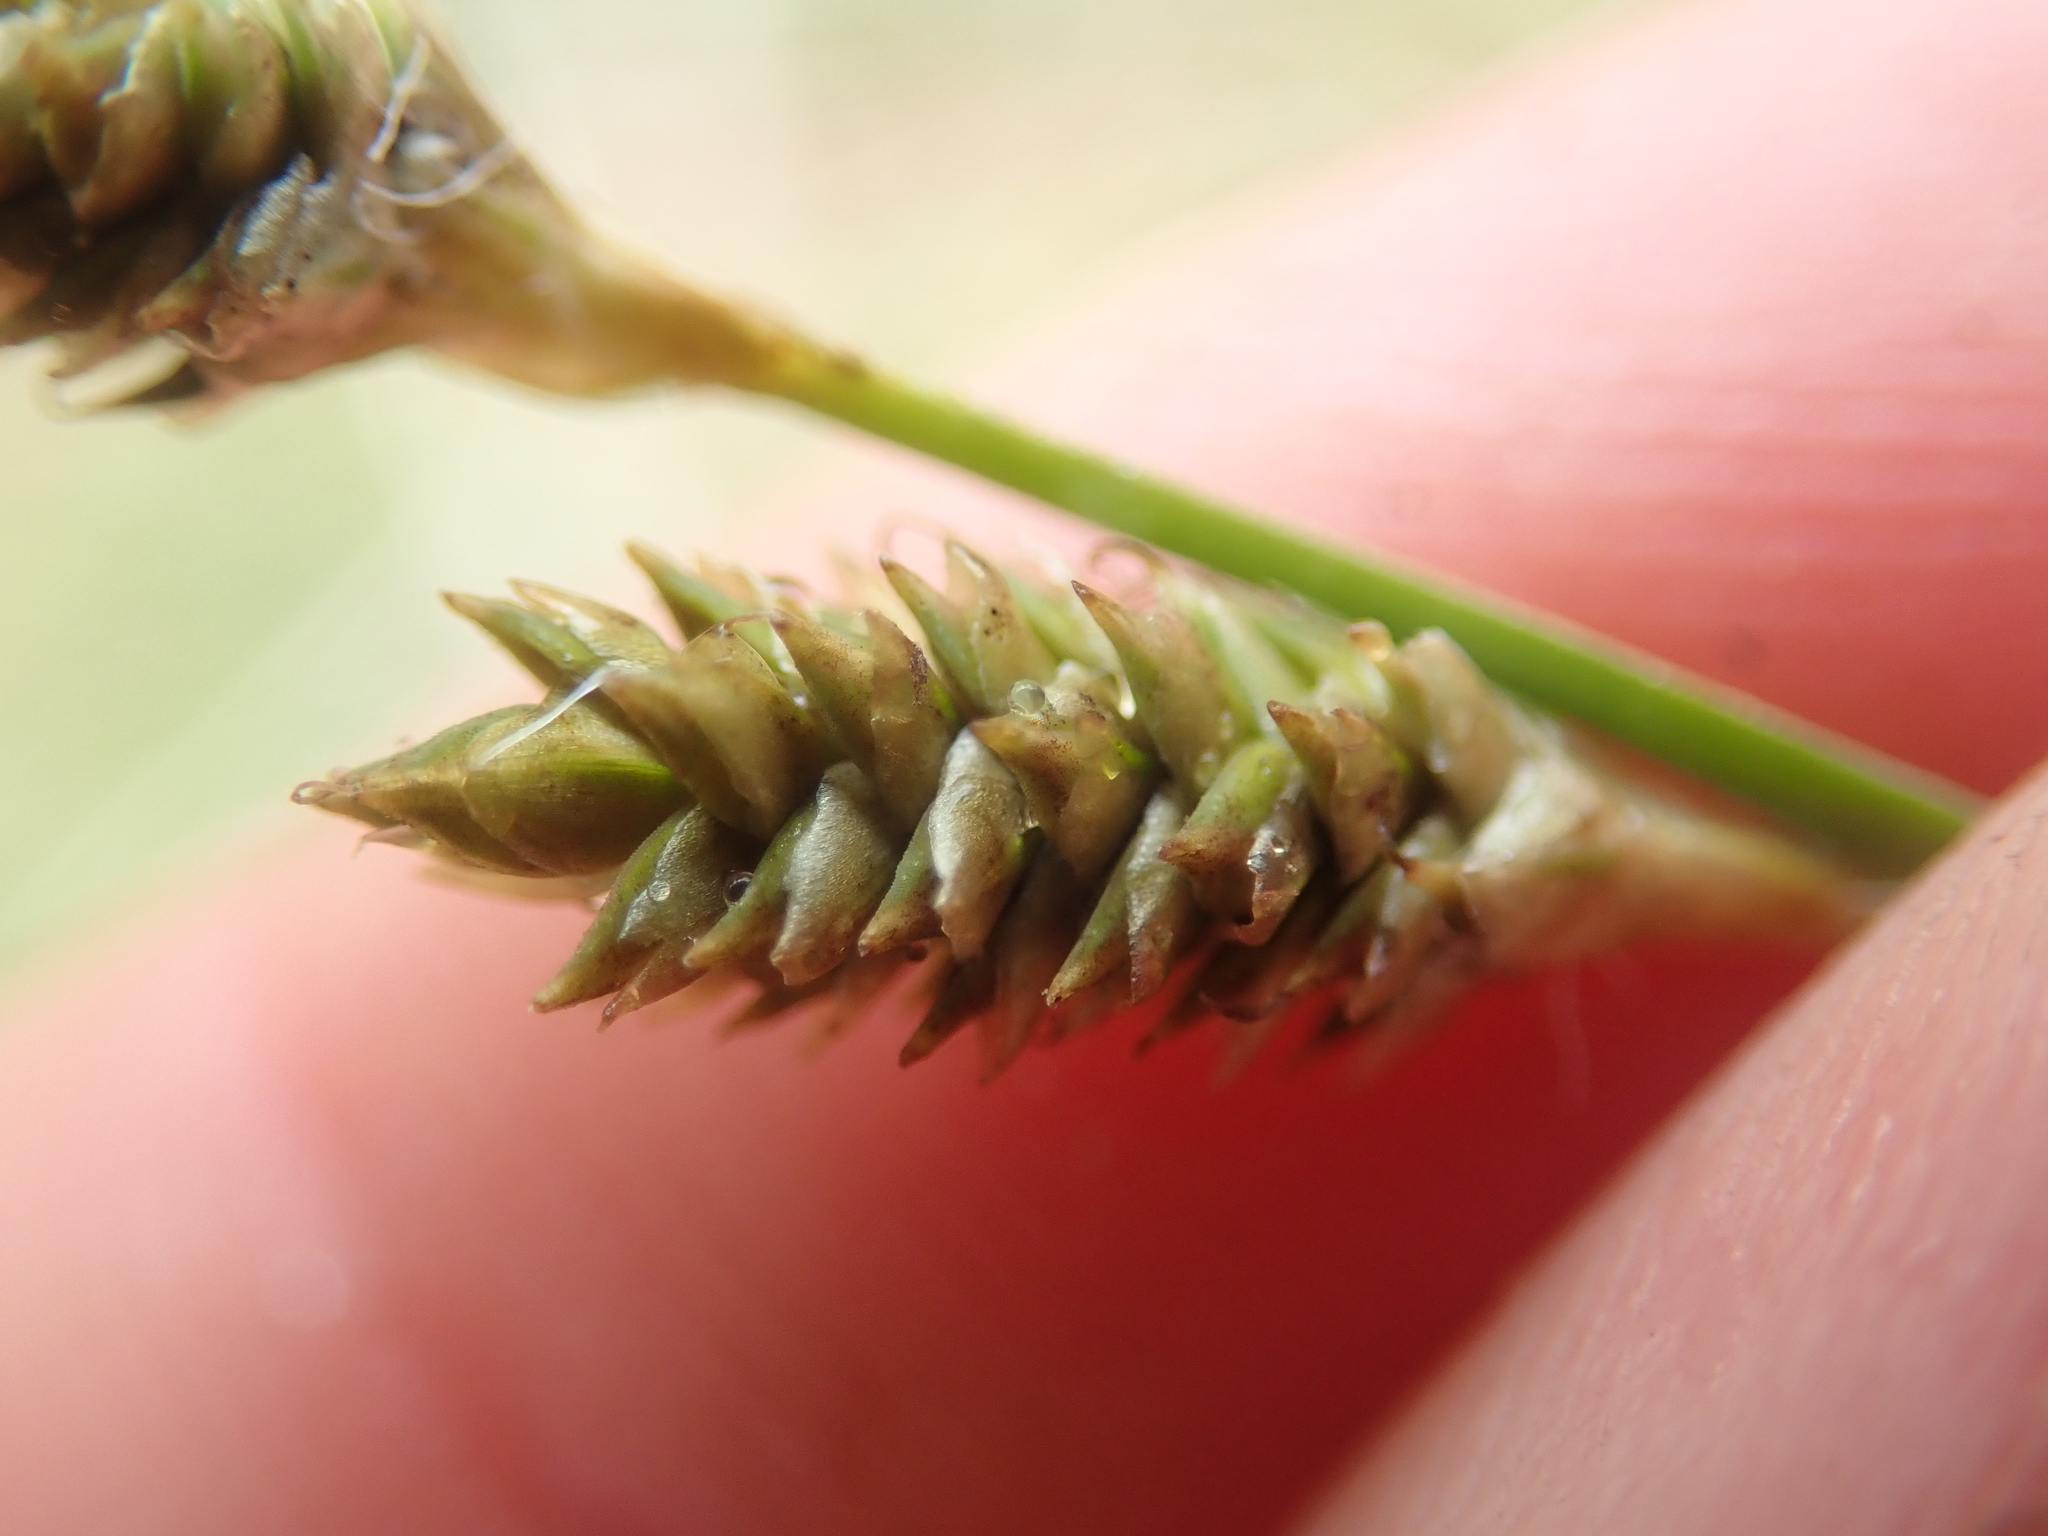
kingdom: Plantae
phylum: Tracheophyta
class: Liliopsida
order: Poales
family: Cyperaceae
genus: Carex
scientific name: Carex canescens
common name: White sedge
